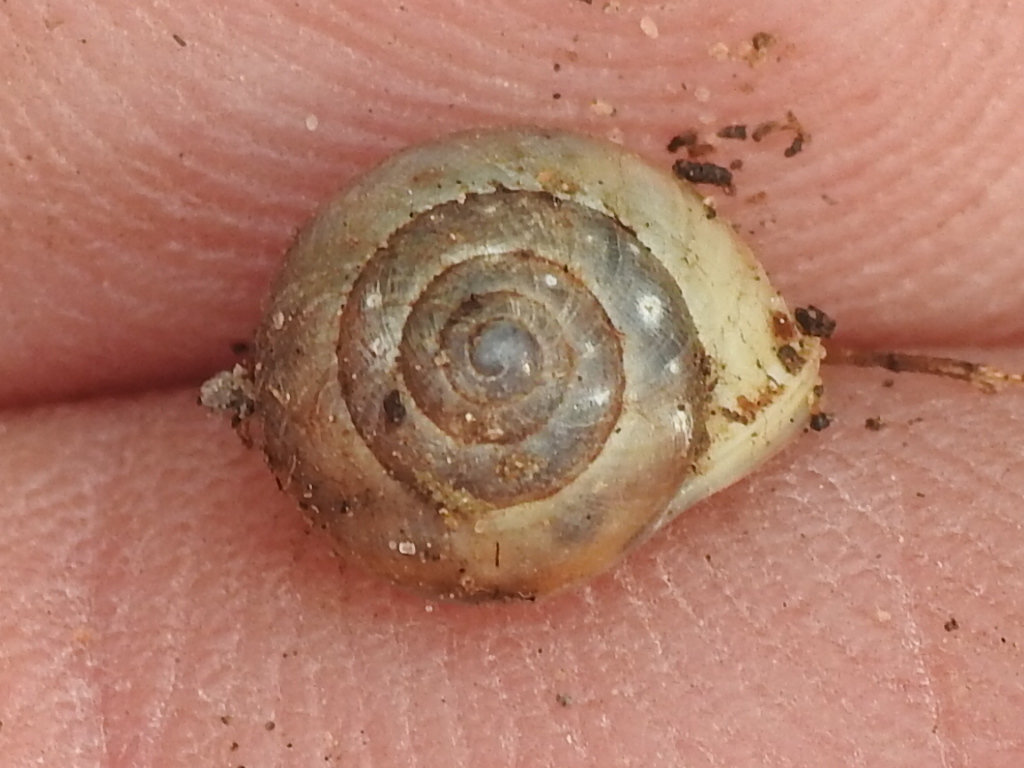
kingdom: Animalia
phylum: Mollusca
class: Gastropoda
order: Cycloneritida
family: Helicinidae
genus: Helicina
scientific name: Helicina orbiculata
